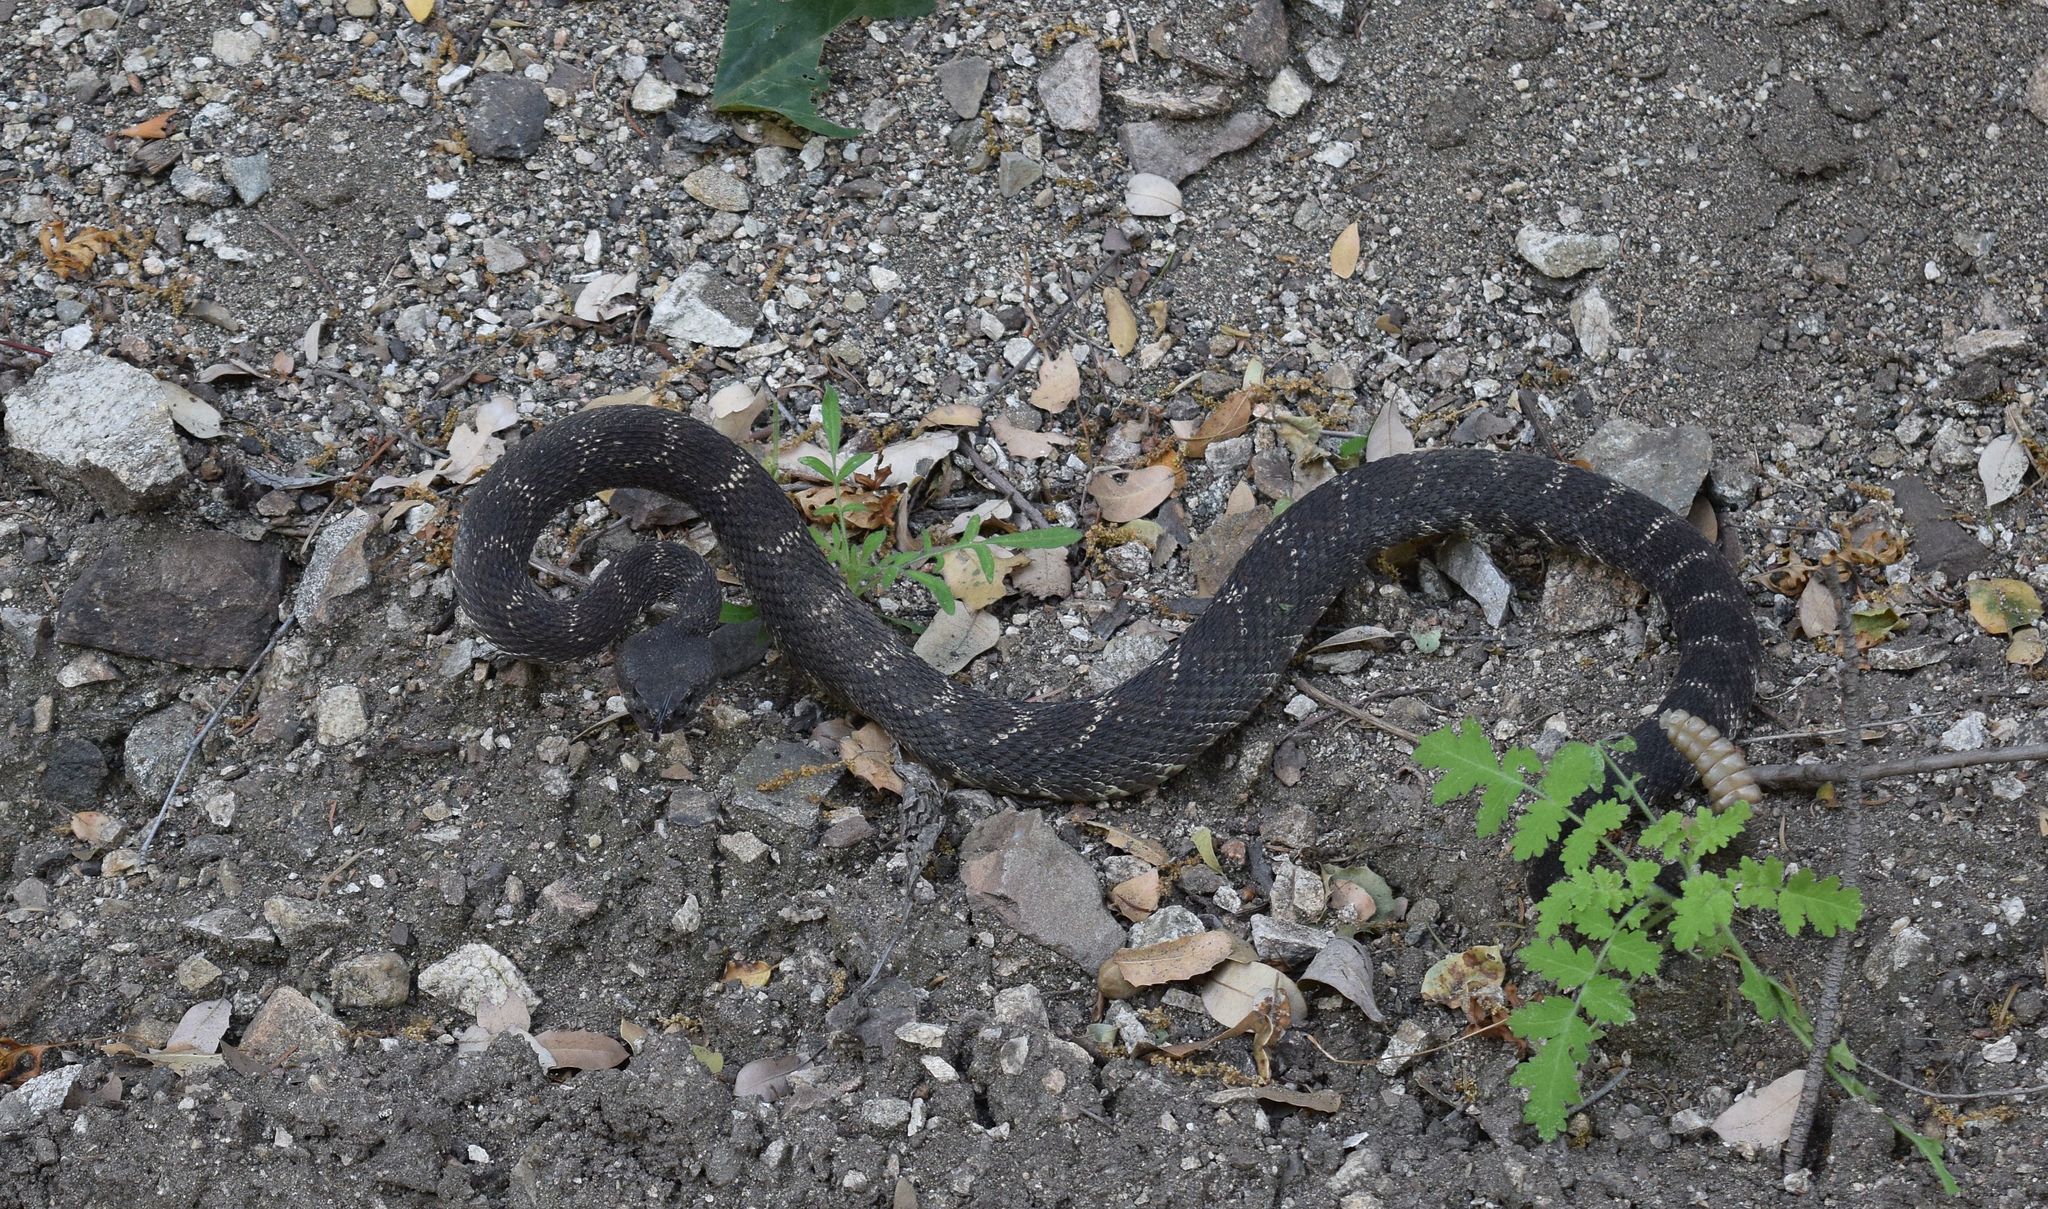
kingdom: Animalia
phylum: Chordata
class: Squamata
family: Viperidae
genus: Crotalus
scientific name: Crotalus oreganus
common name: Abyssus
